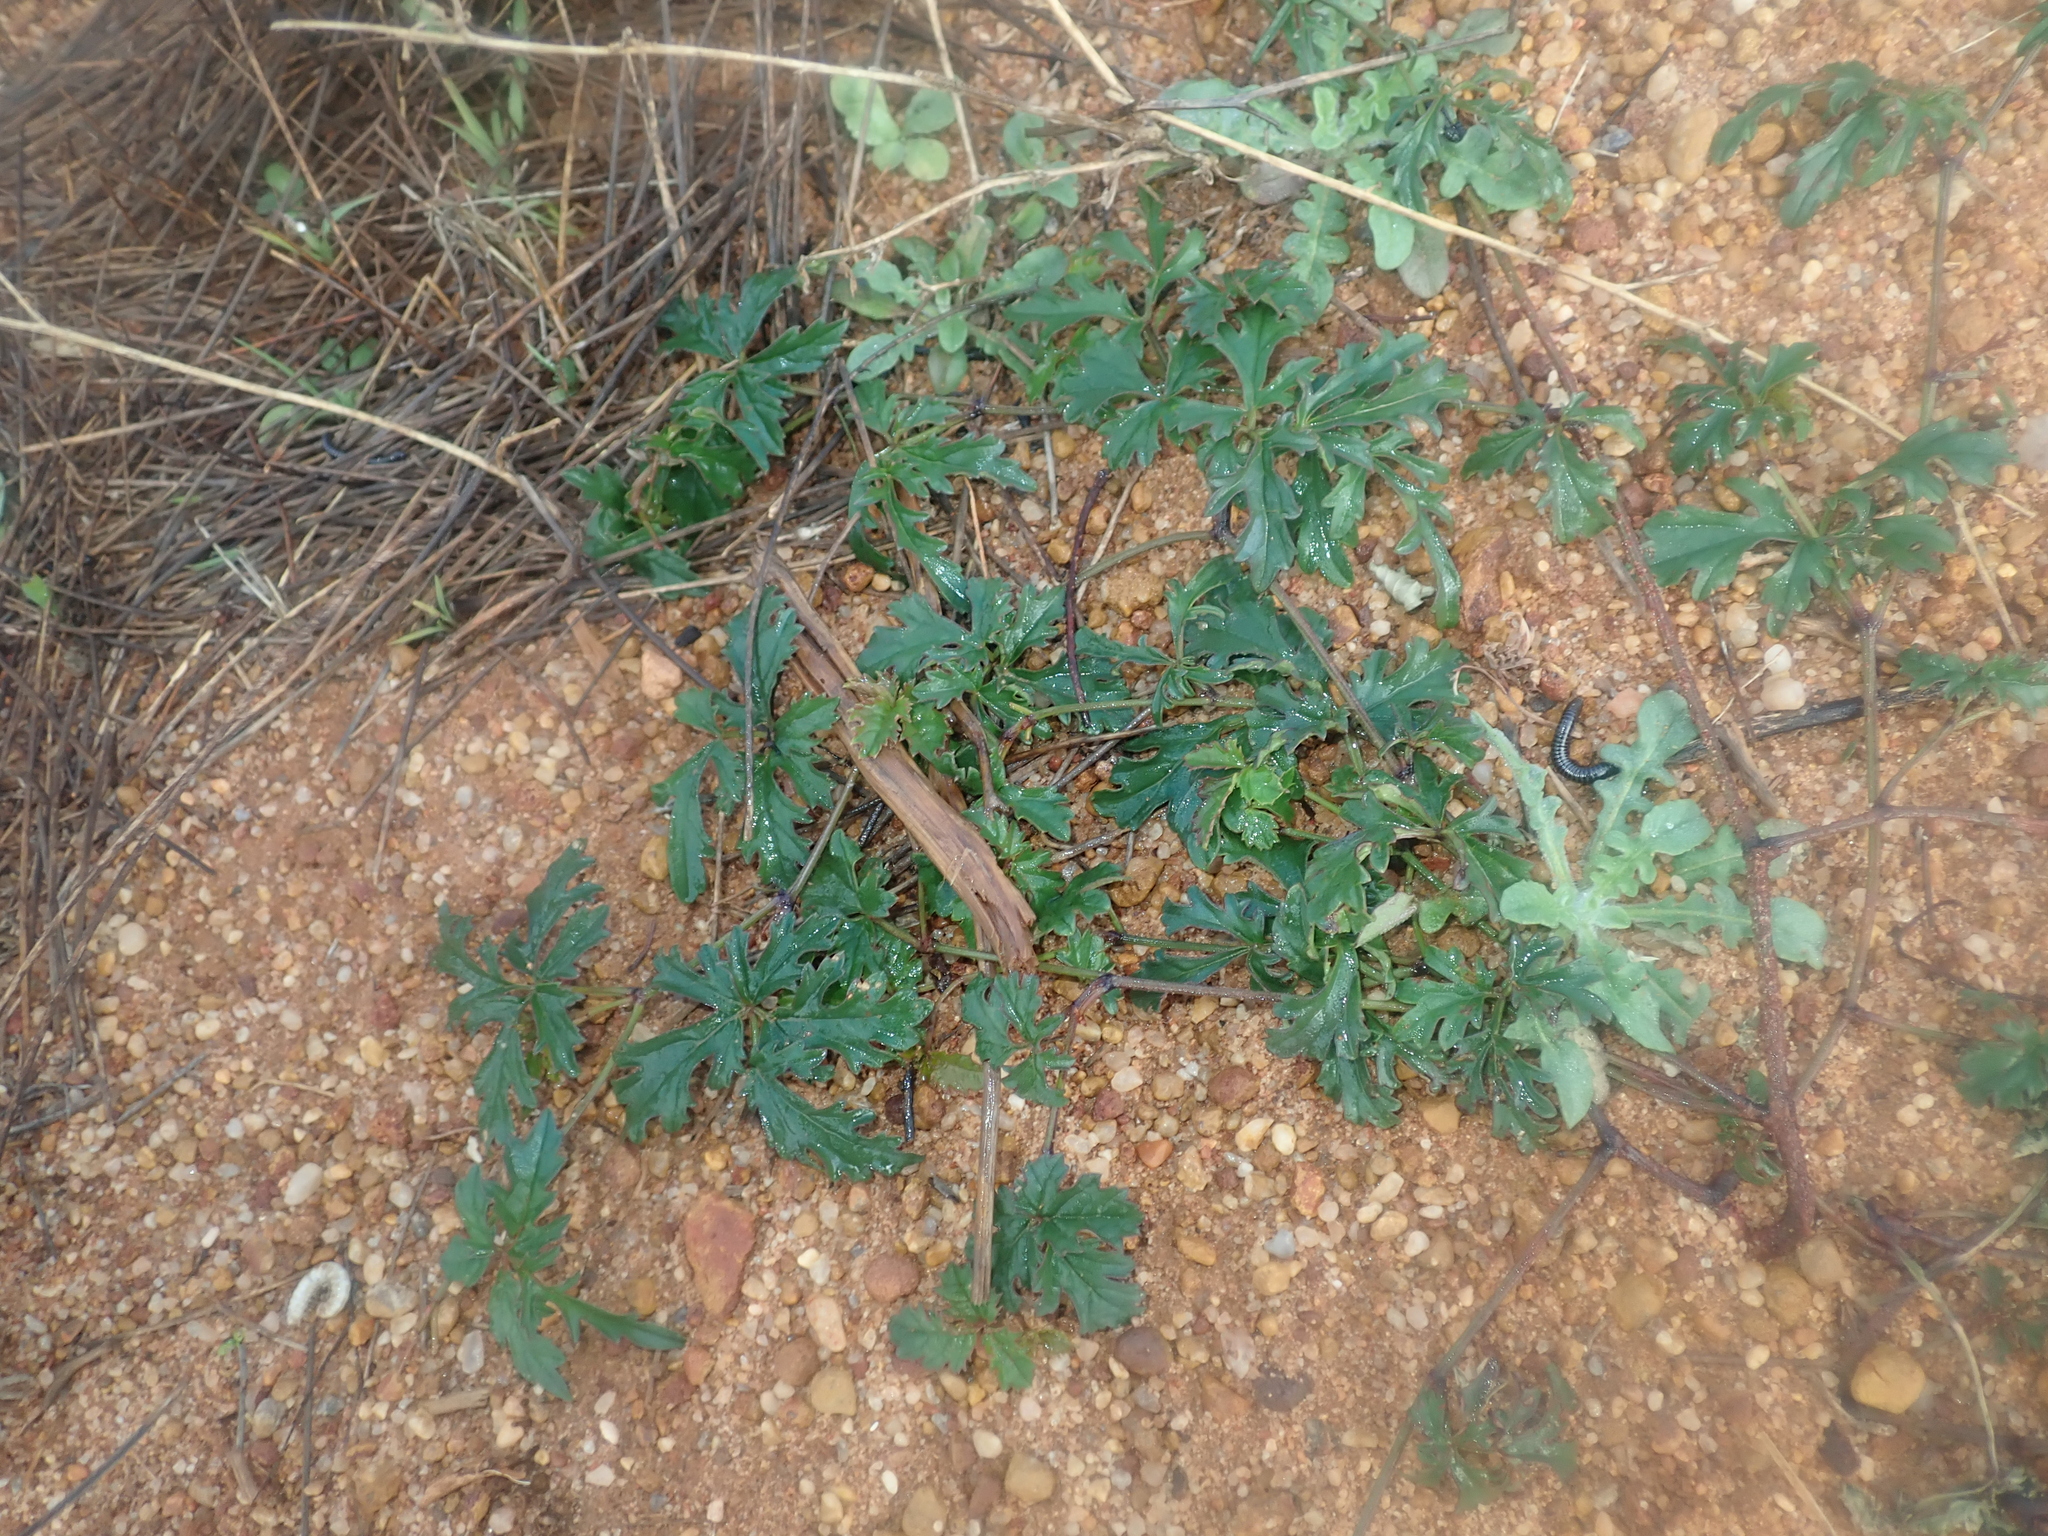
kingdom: Plantae
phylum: Tracheophyta
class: Magnoliopsida
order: Vitales
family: Vitaceae
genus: Clematicissus
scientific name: Clematicissus angustissima
